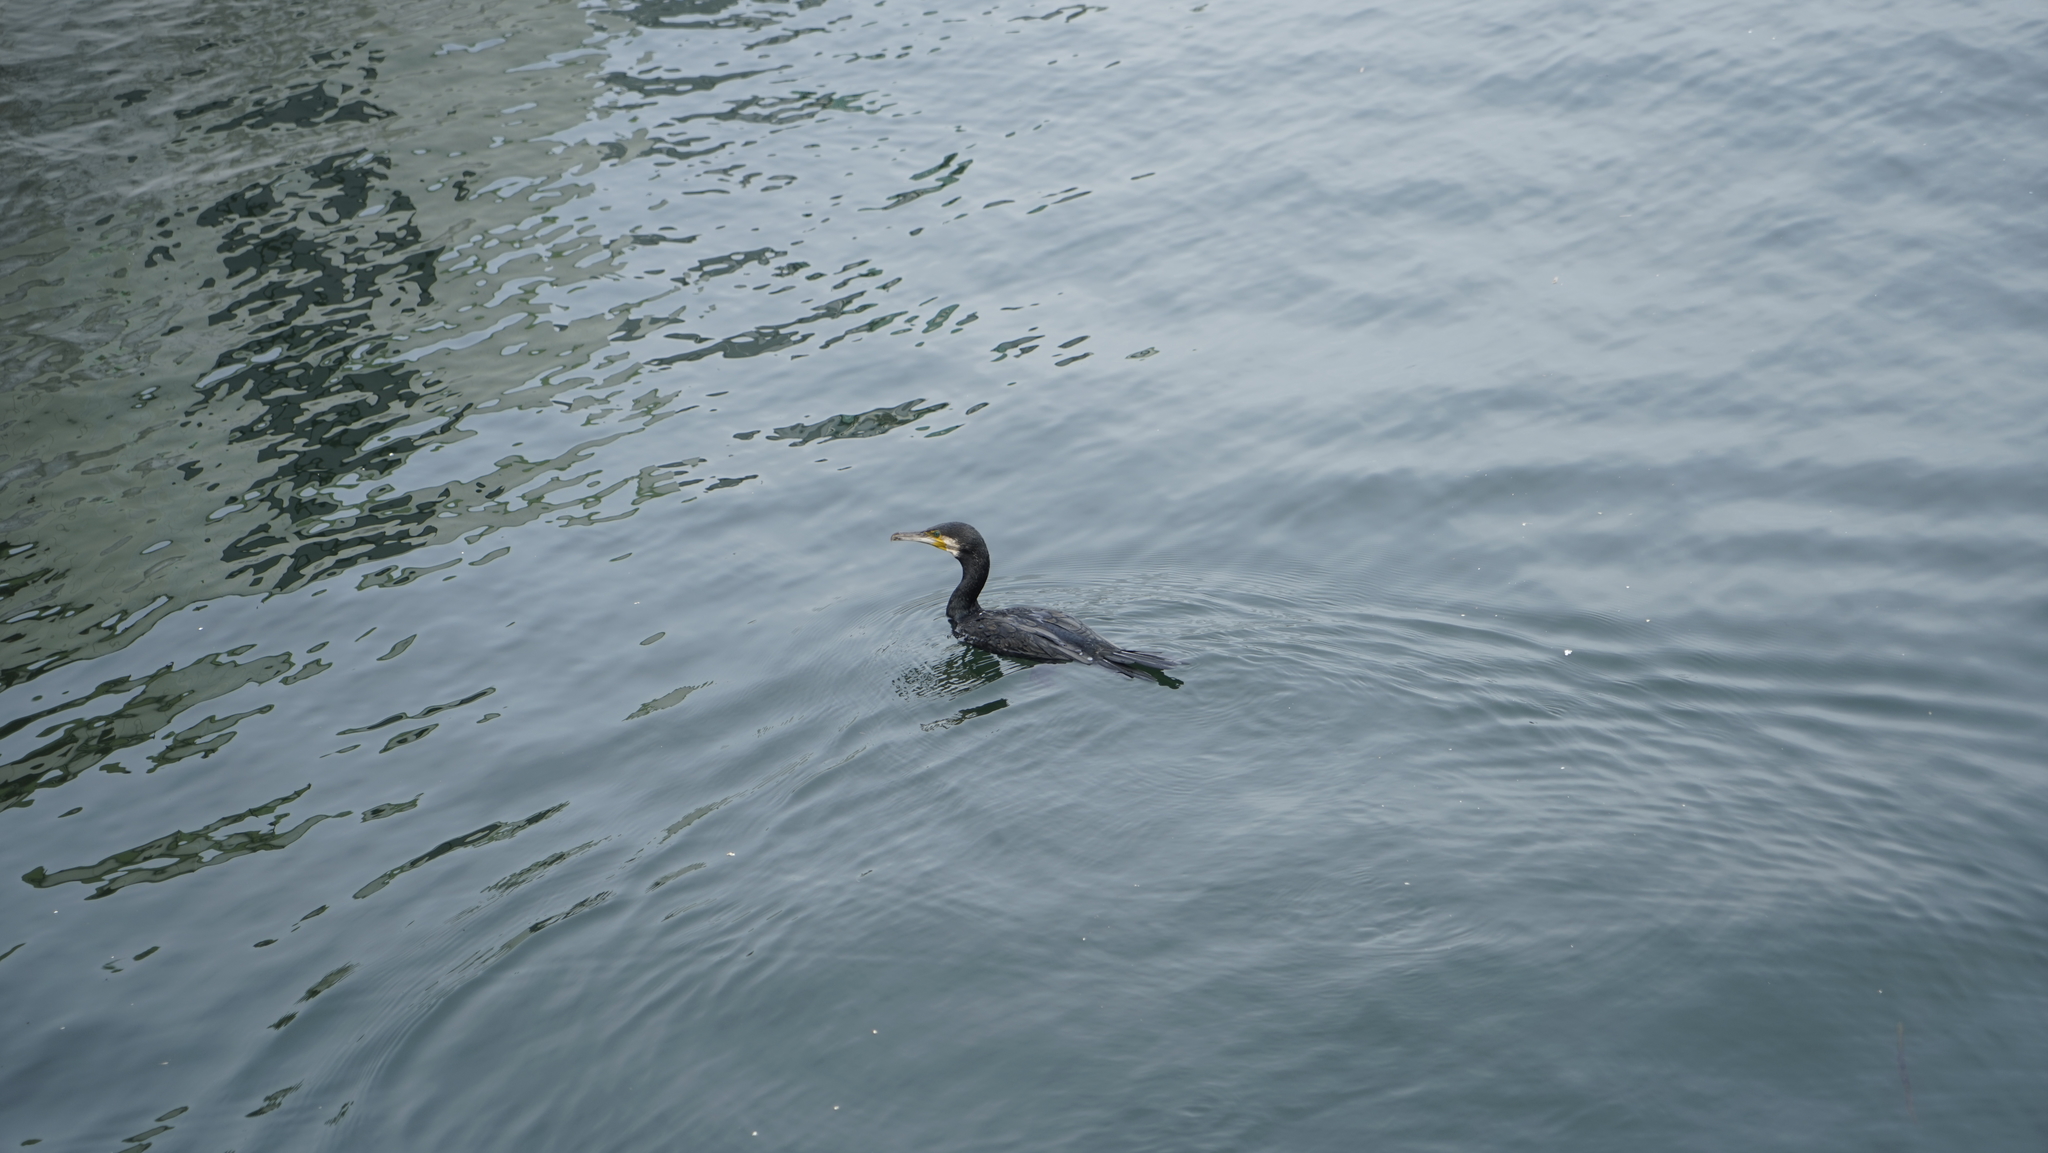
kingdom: Animalia
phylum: Chordata
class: Aves
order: Suliformes
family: Phalacrocoracidae
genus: Phalacrocorax
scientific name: Phalacrocorax carbo
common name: Great cormorant
